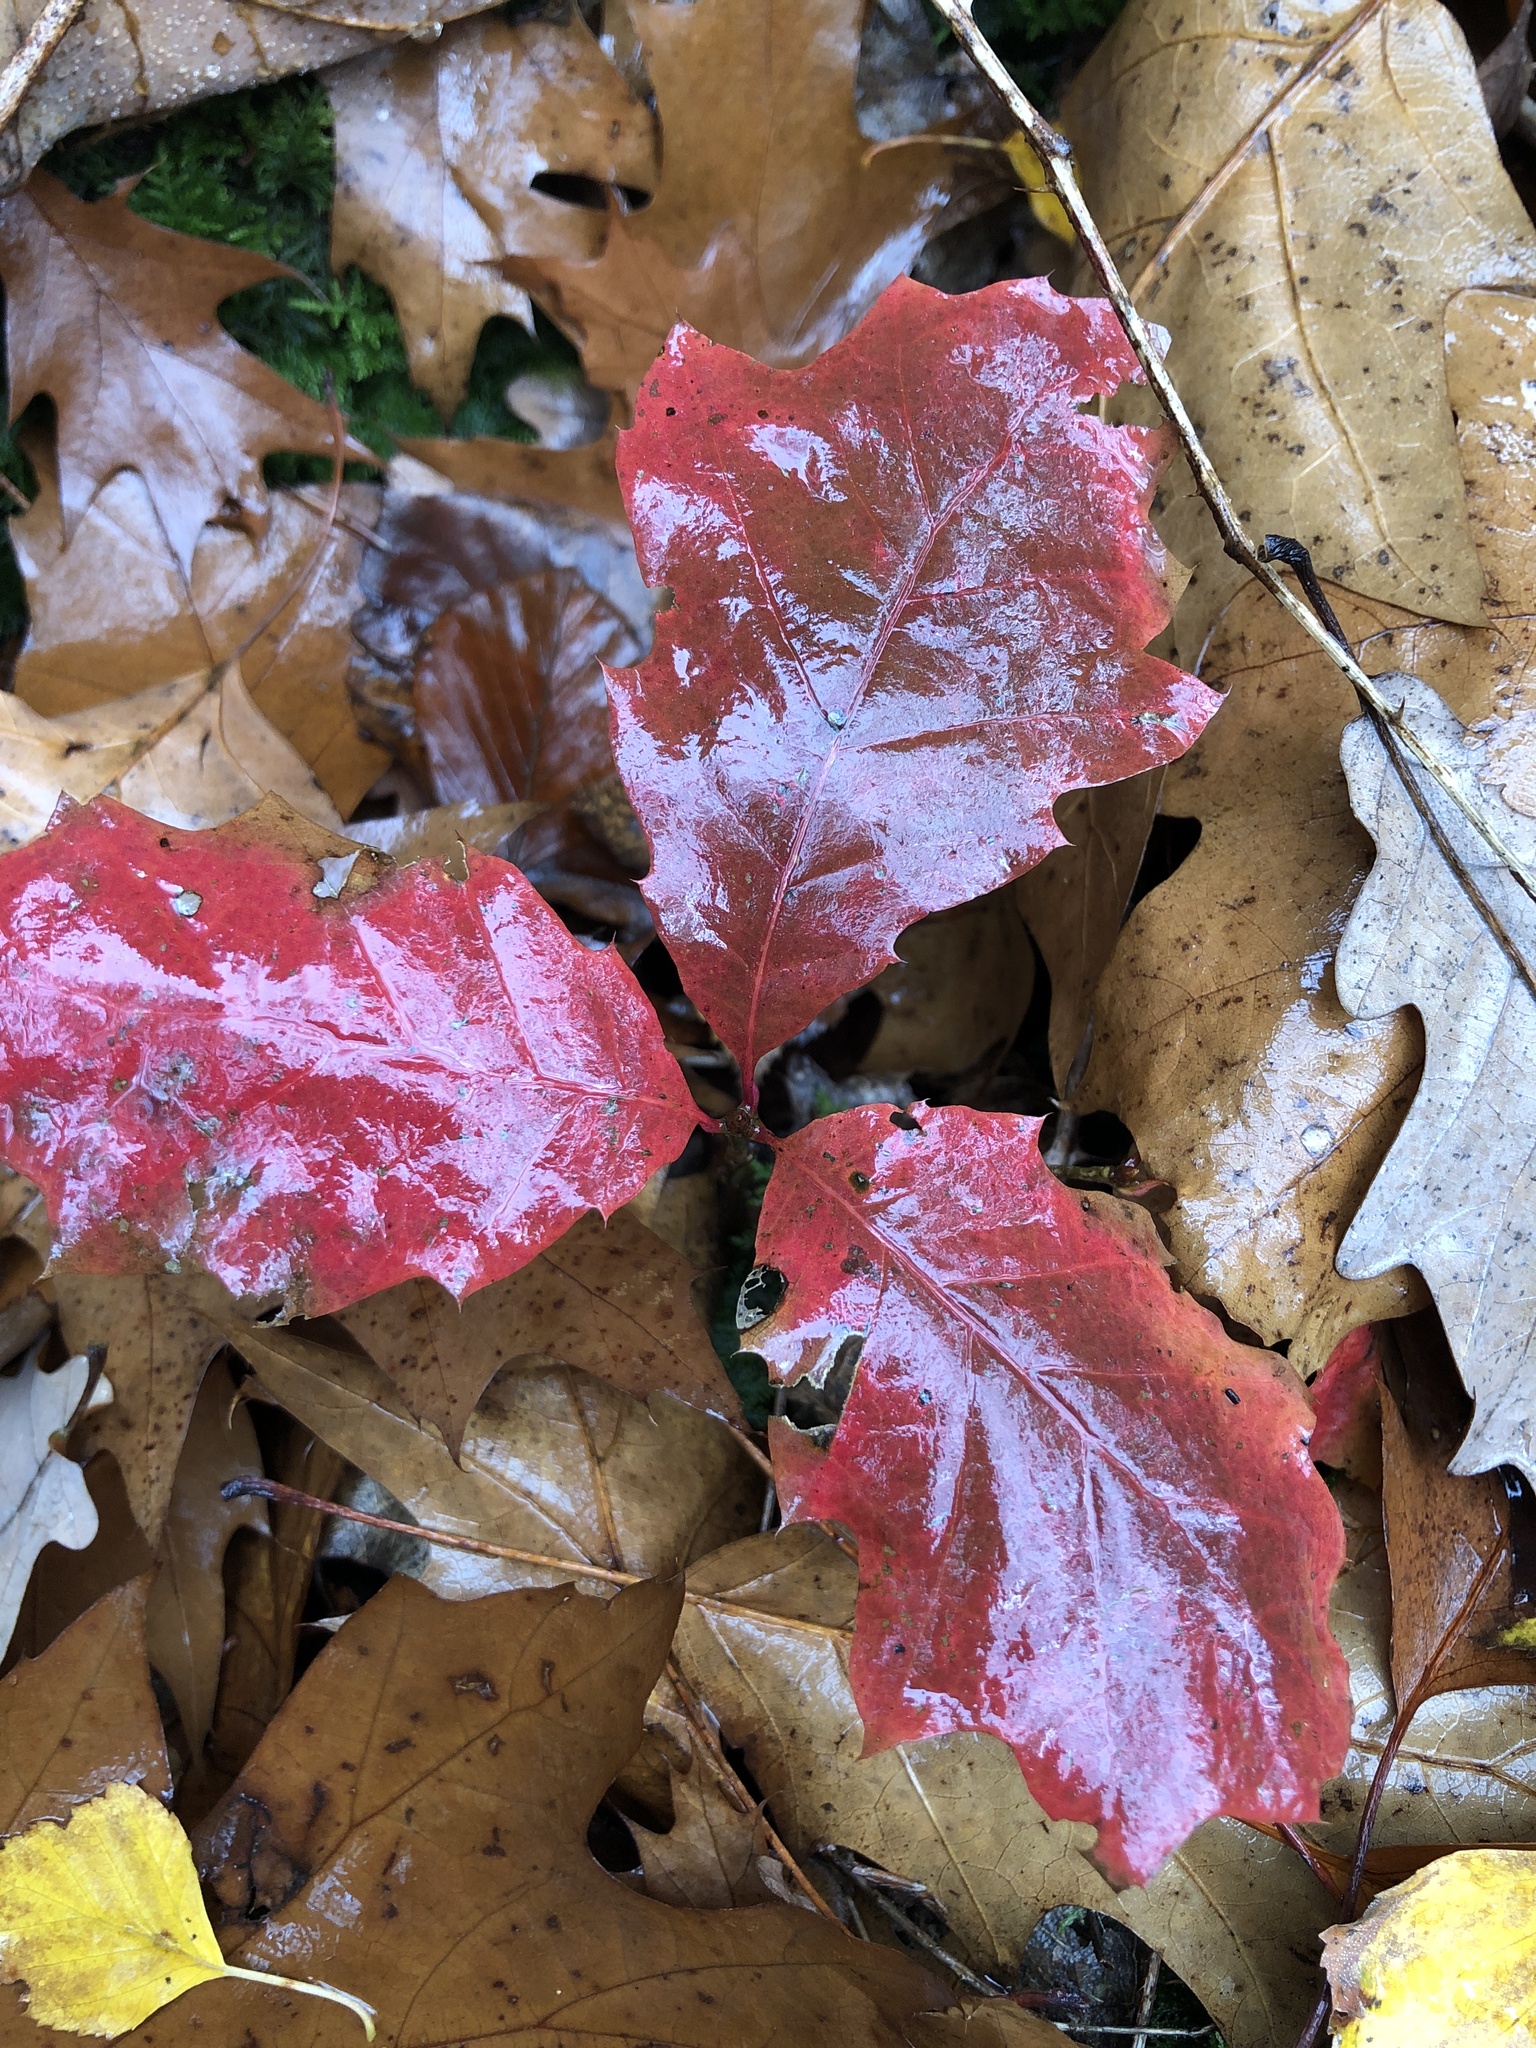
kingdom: Plantae
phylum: Tracheophyta
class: Magnoliopsida
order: Fagales
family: Fagaceae
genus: Quercus
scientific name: Quercus rubra
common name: Red oak
